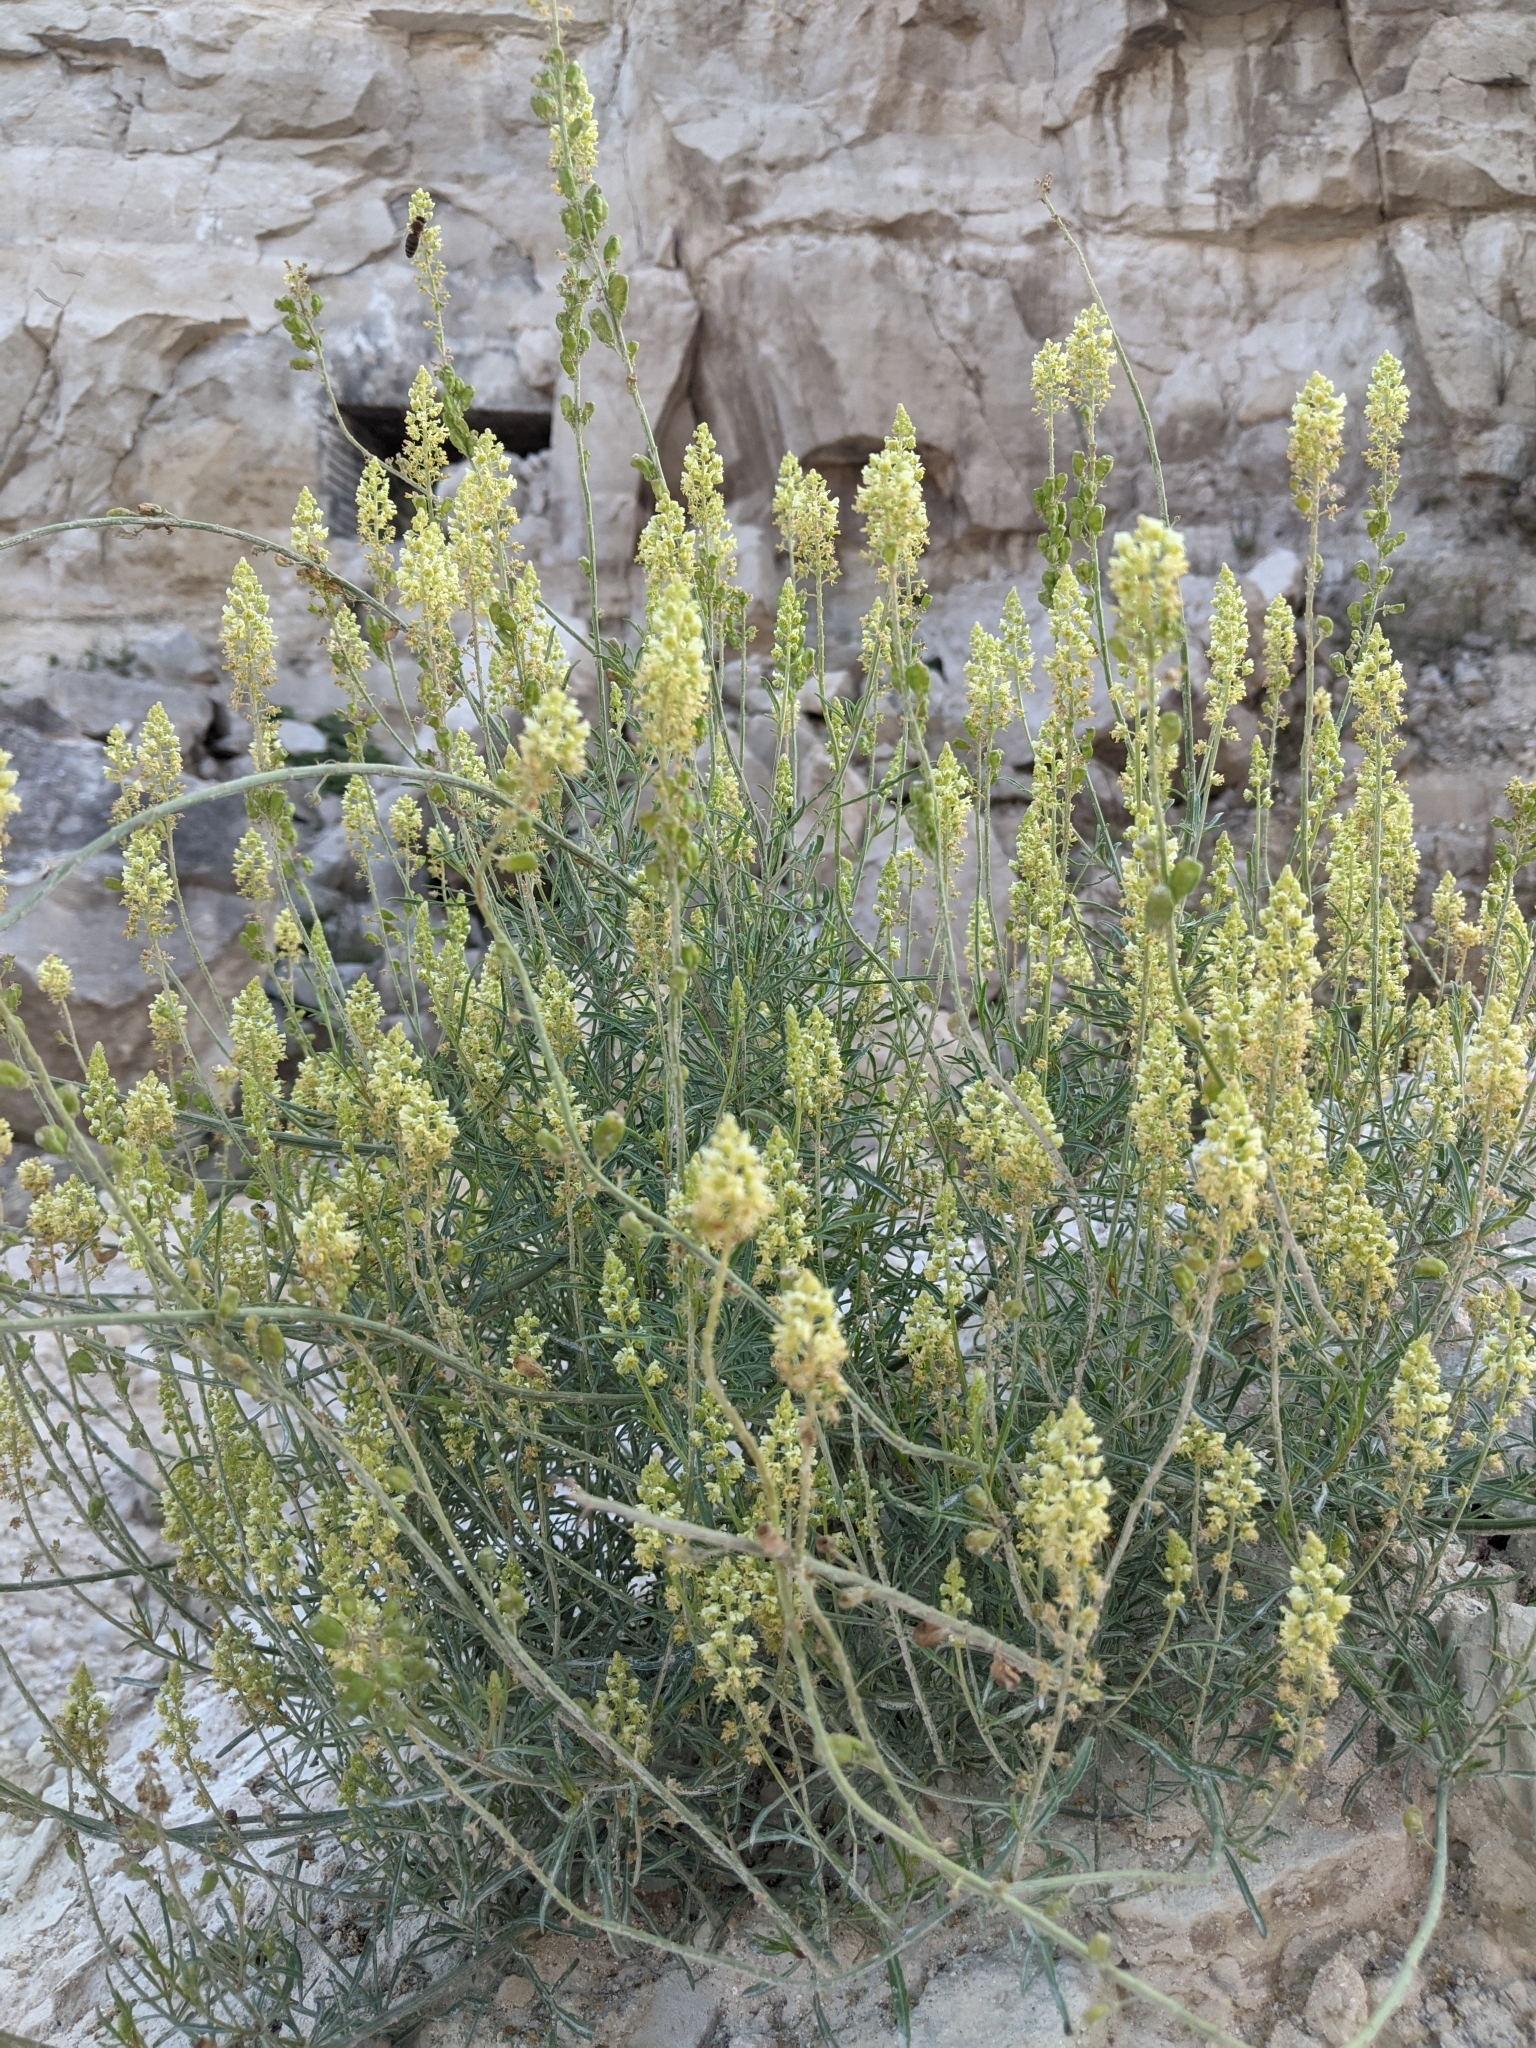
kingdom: Plantae
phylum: Tracheophyta
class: Magnoliopsida
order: Brassicales
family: Resedaceae
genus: Reseda
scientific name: Reseda lutea
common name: Wild mignonette
